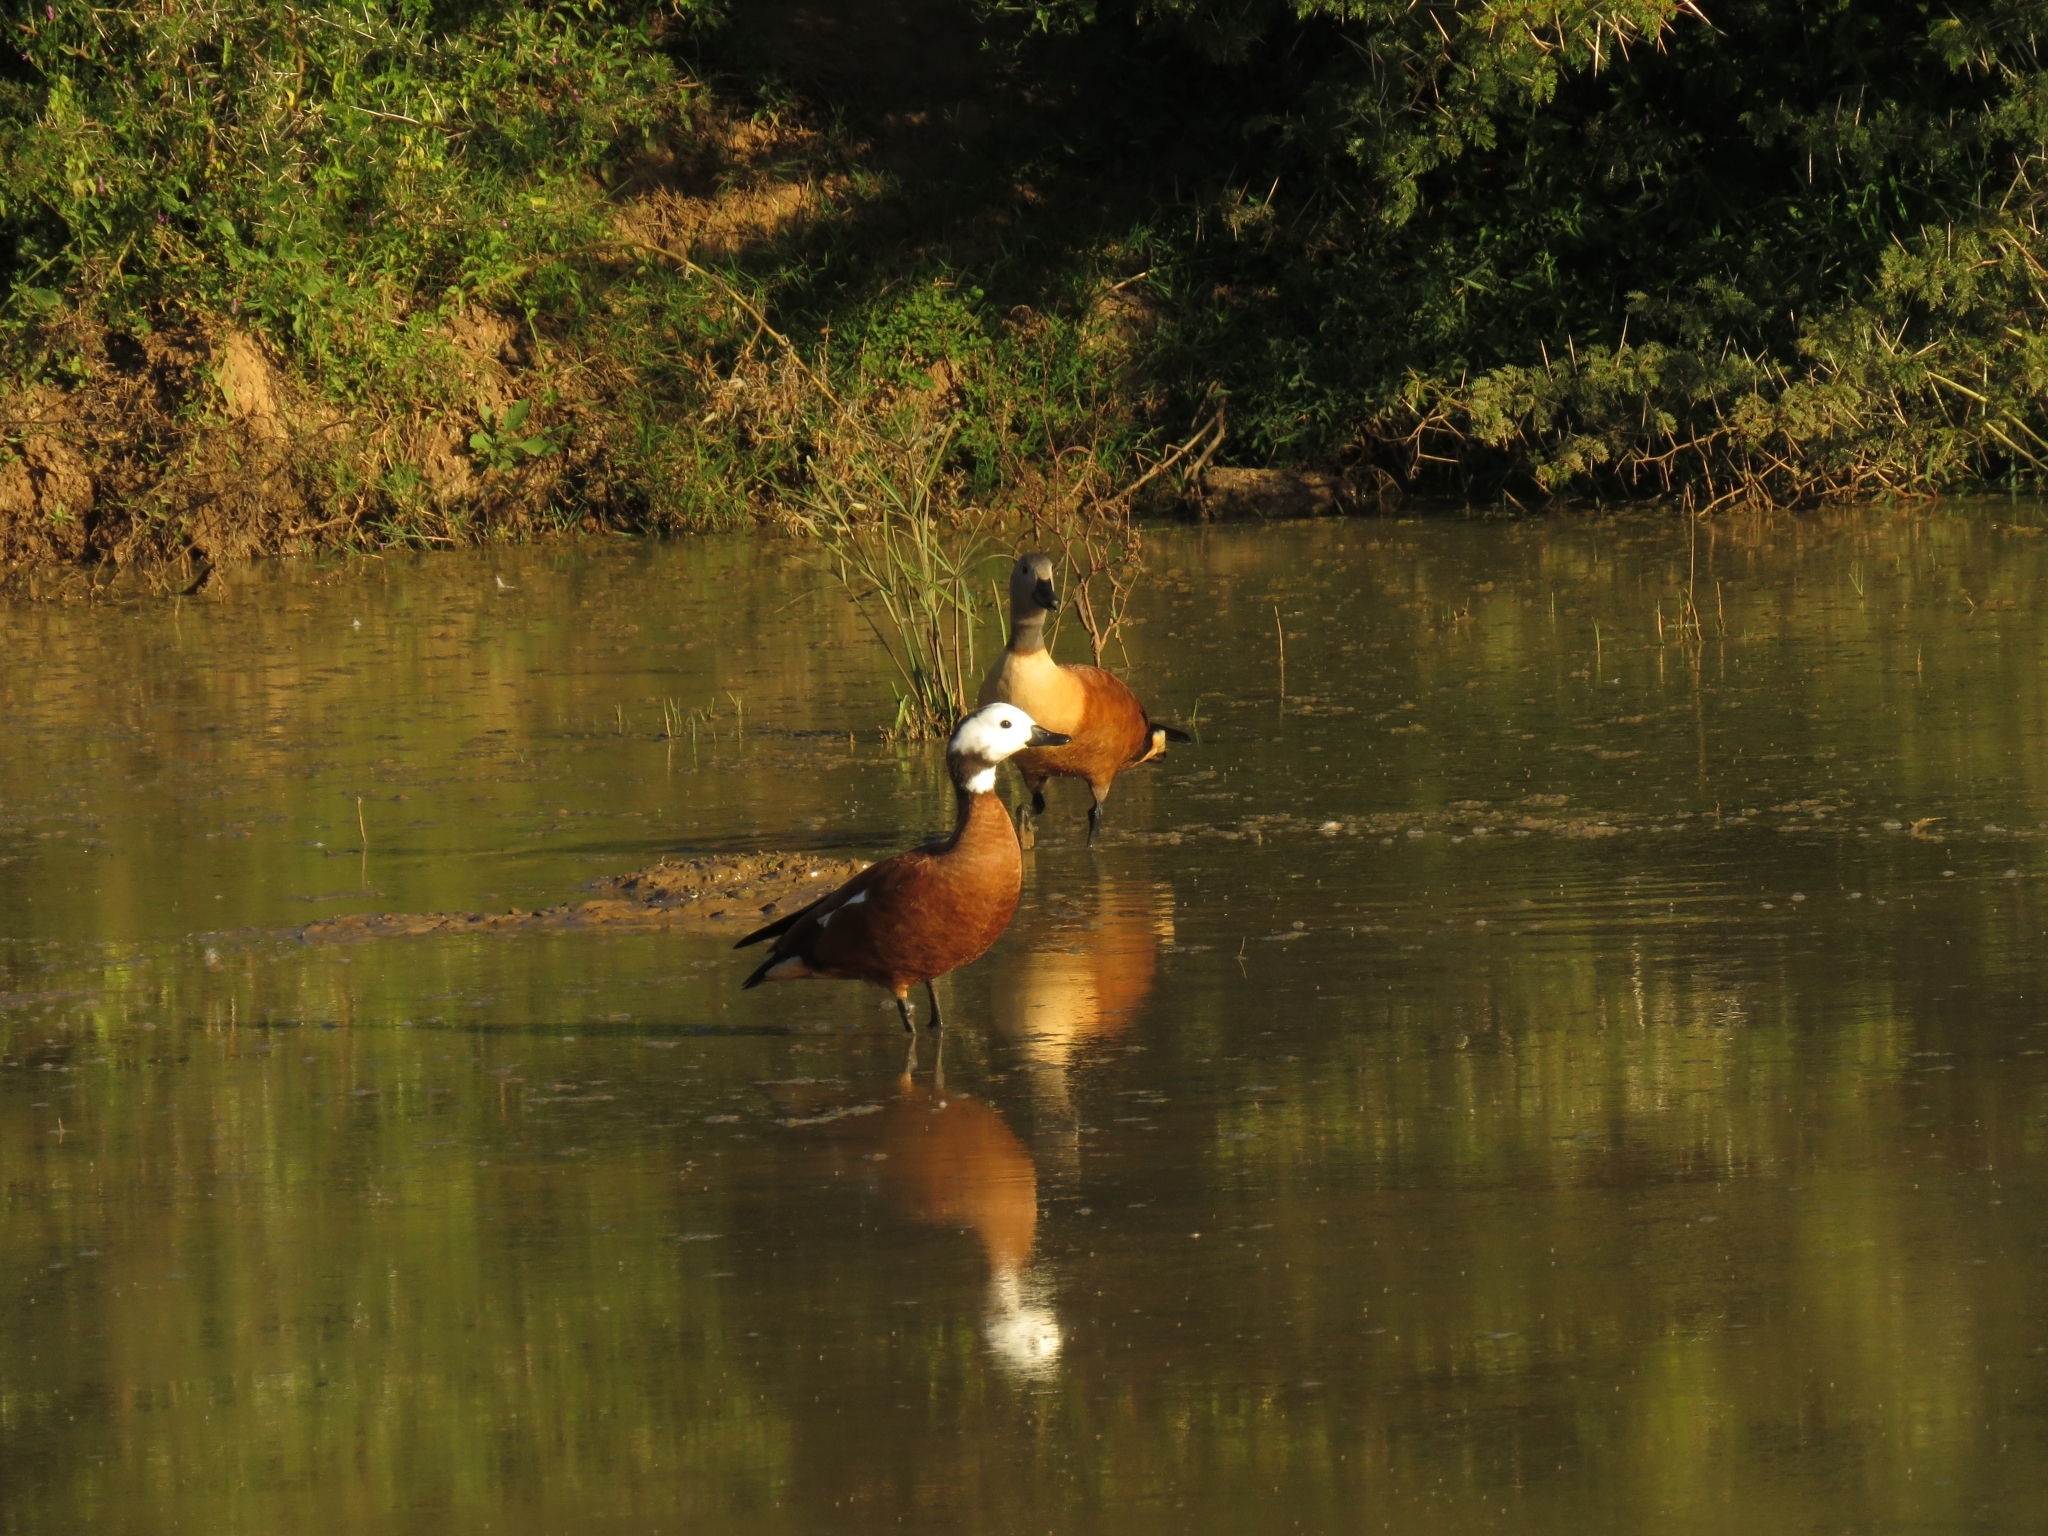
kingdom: Animalia
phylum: Chordata
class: Aves
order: Anseriformes
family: Anatidae
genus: Tadorna
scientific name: Tadorna cana
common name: South african shelduck
